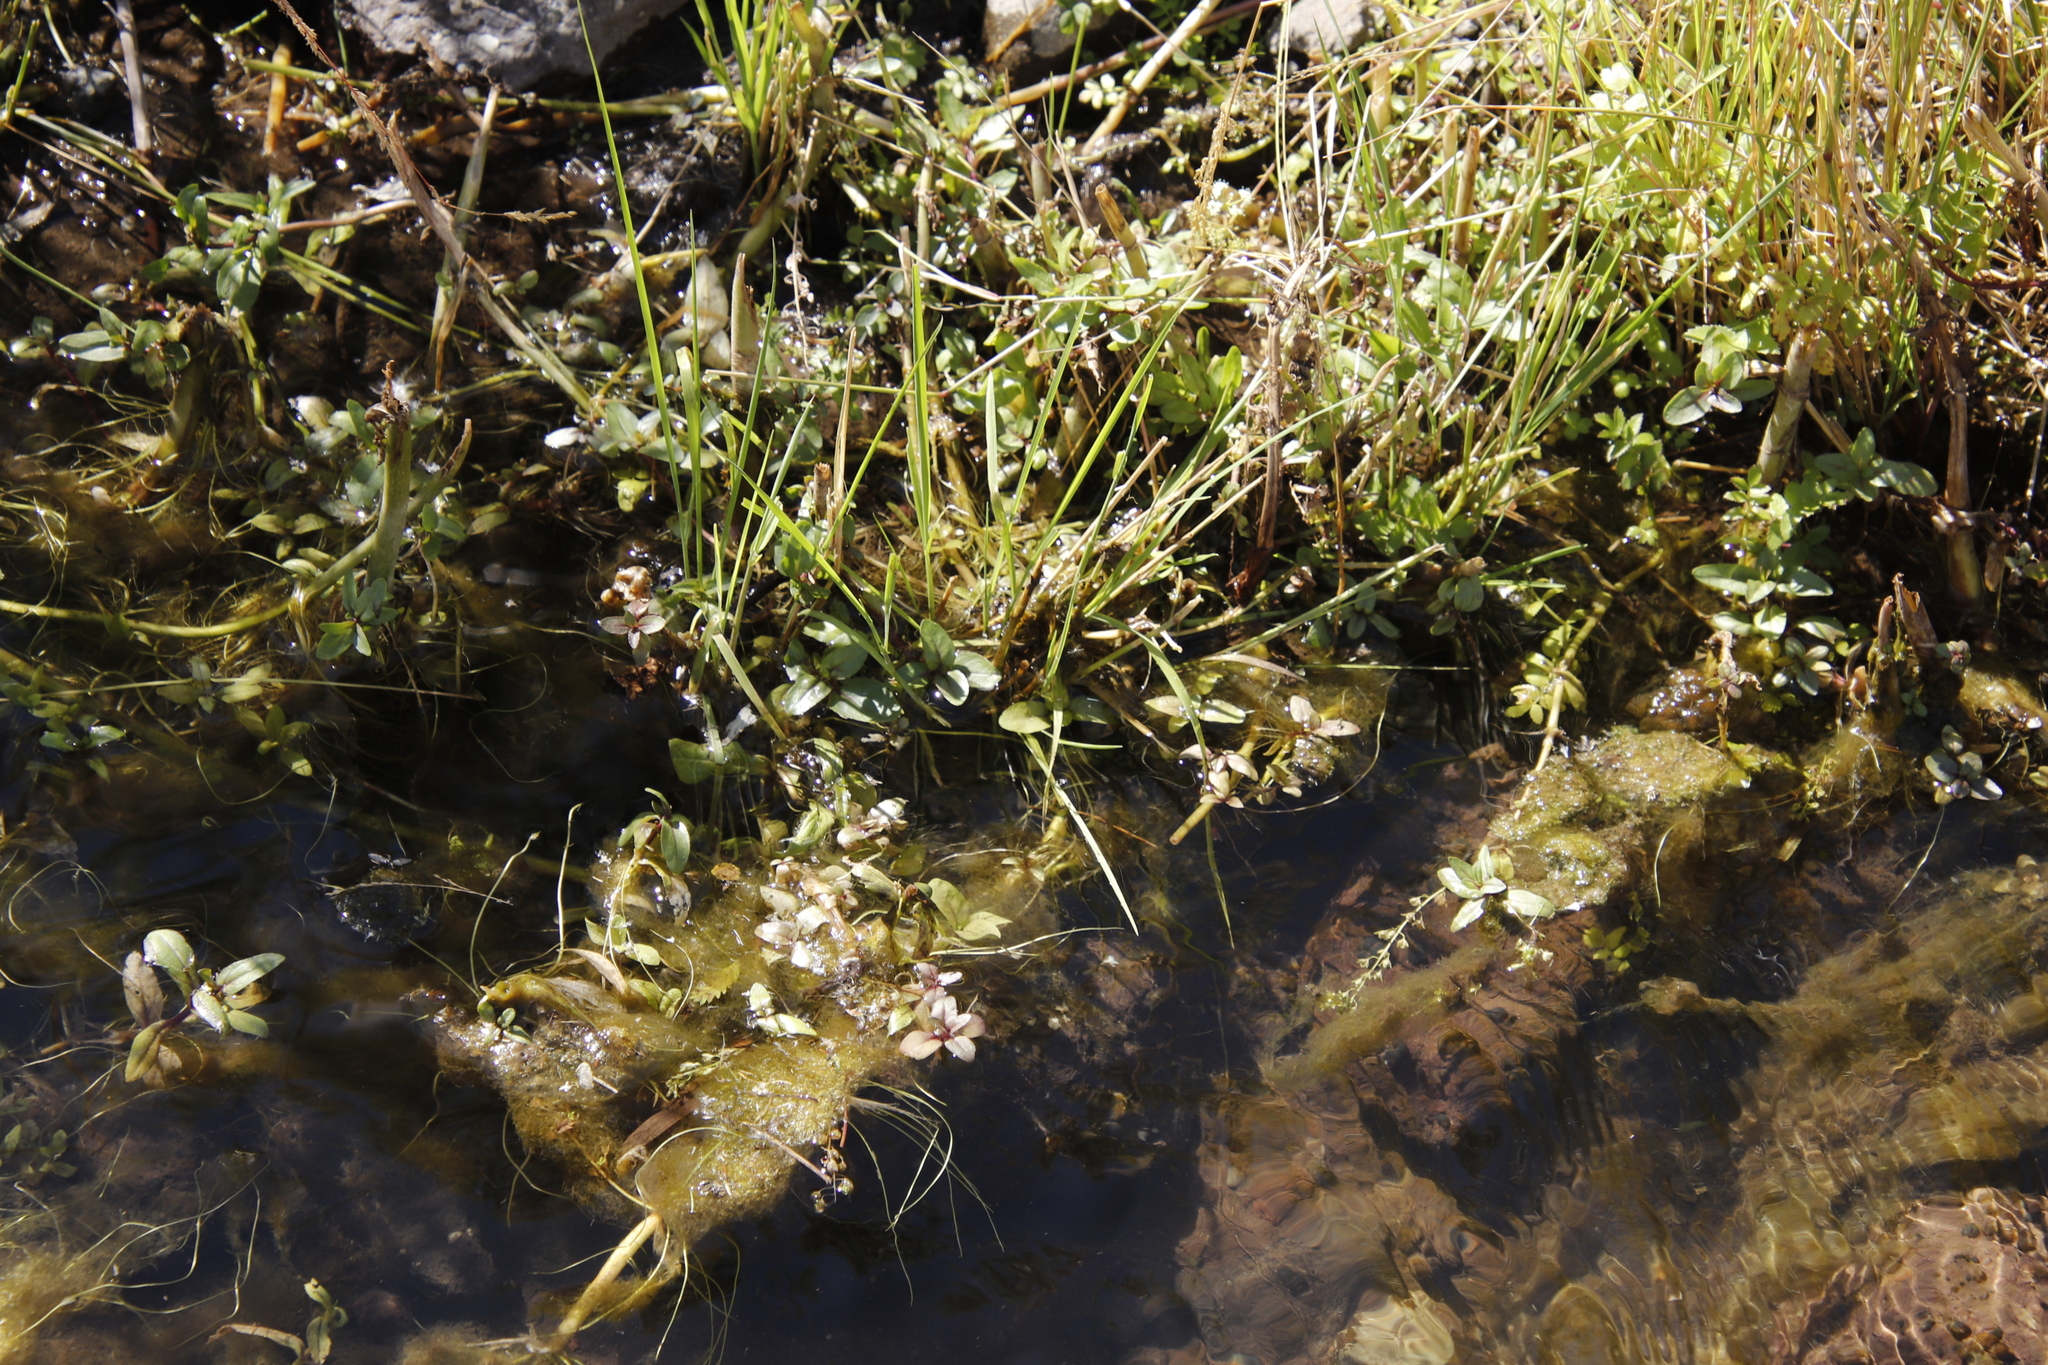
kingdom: Plantae
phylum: Tracheophyta
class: Magnoliopsida
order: Lamiales
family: Plantaginaceae
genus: Veronica
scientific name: Veronica anagallis-aquatica
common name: Water speedwell
